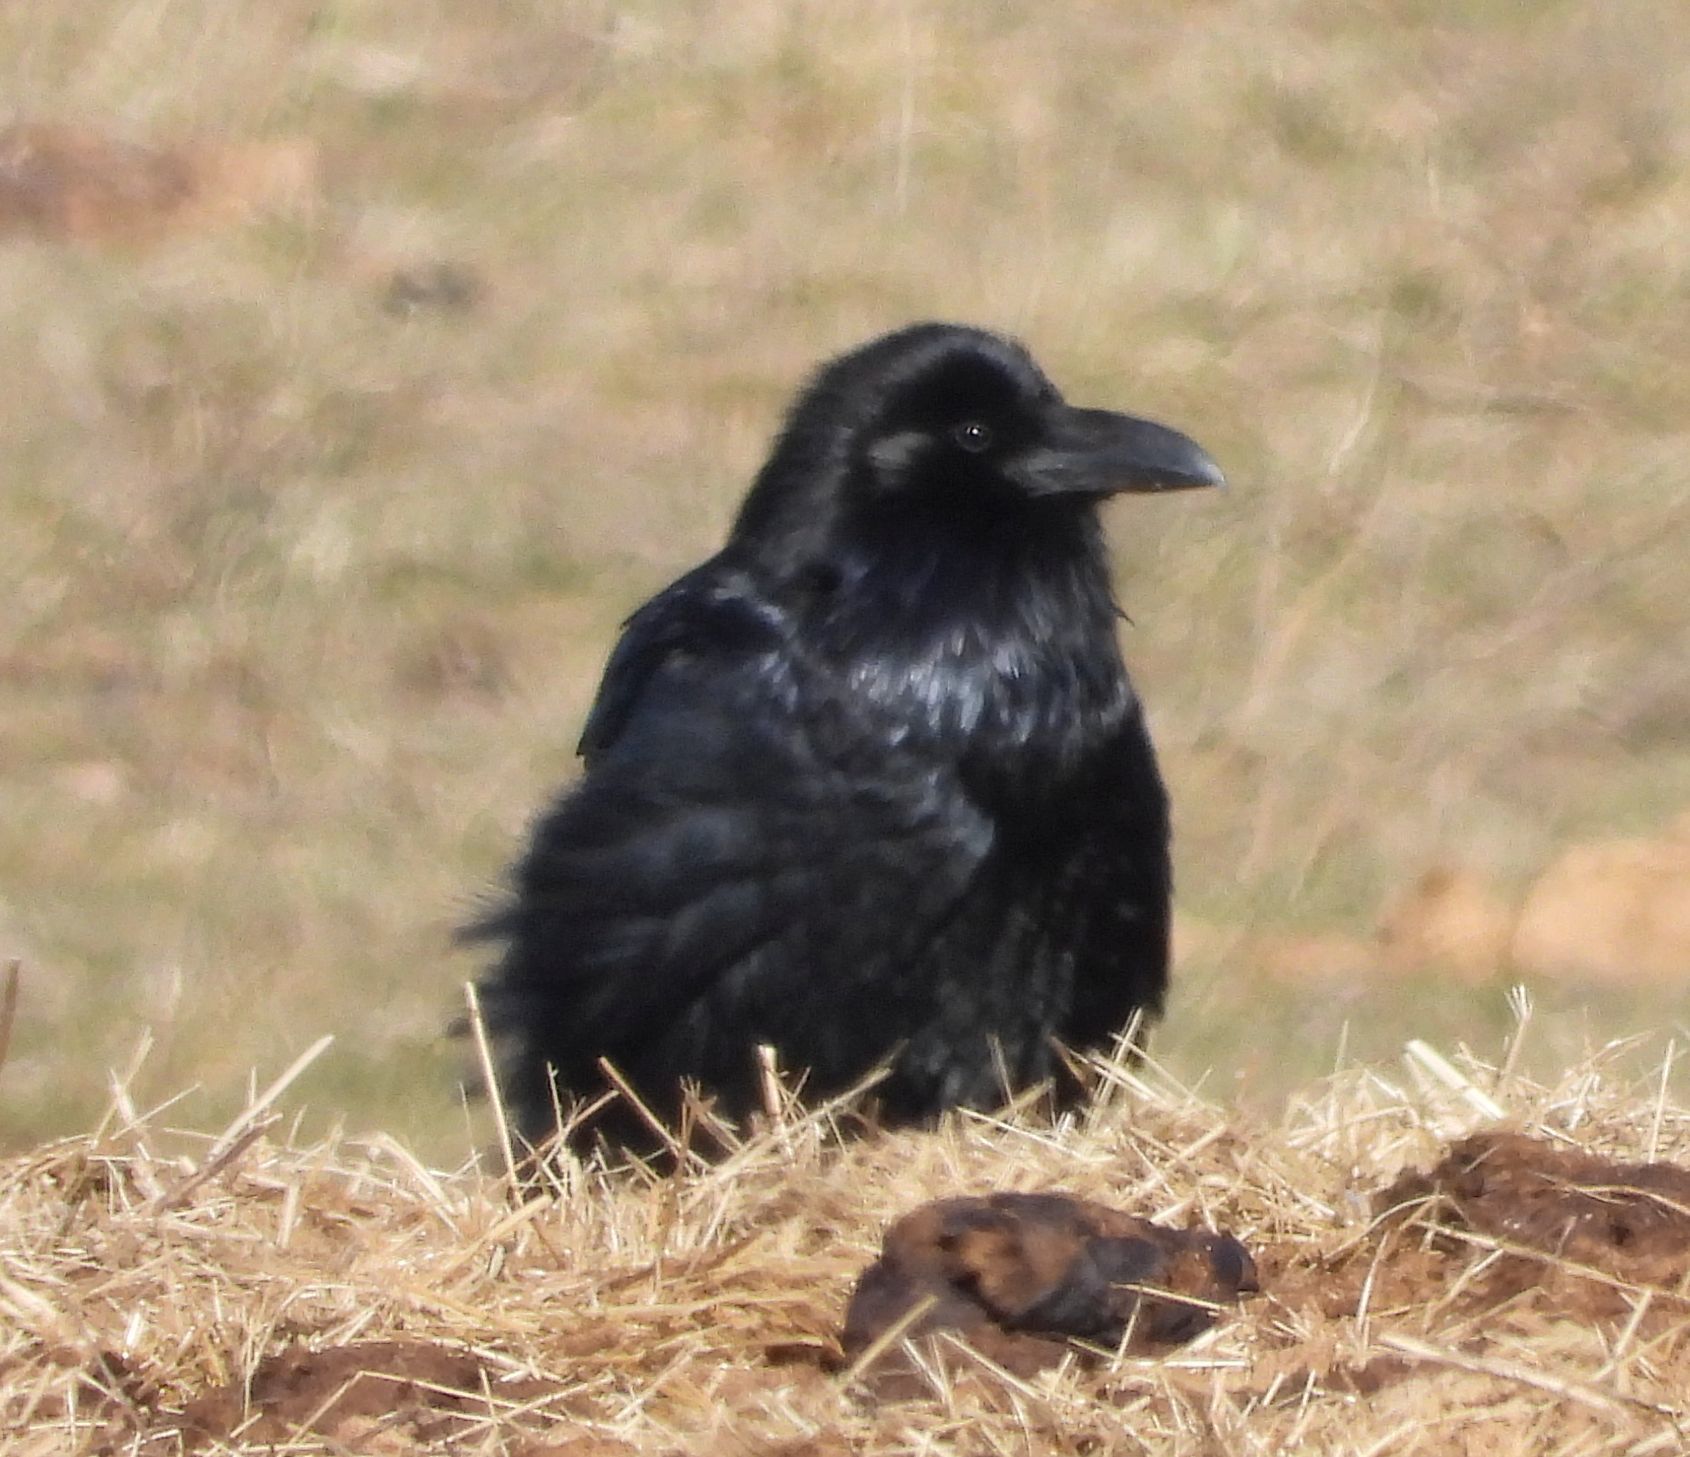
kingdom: Animalia
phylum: Chordata
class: Aves
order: Passeriformes
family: Corvidae
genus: Corvus
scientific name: Corvus corax
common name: Common raven
